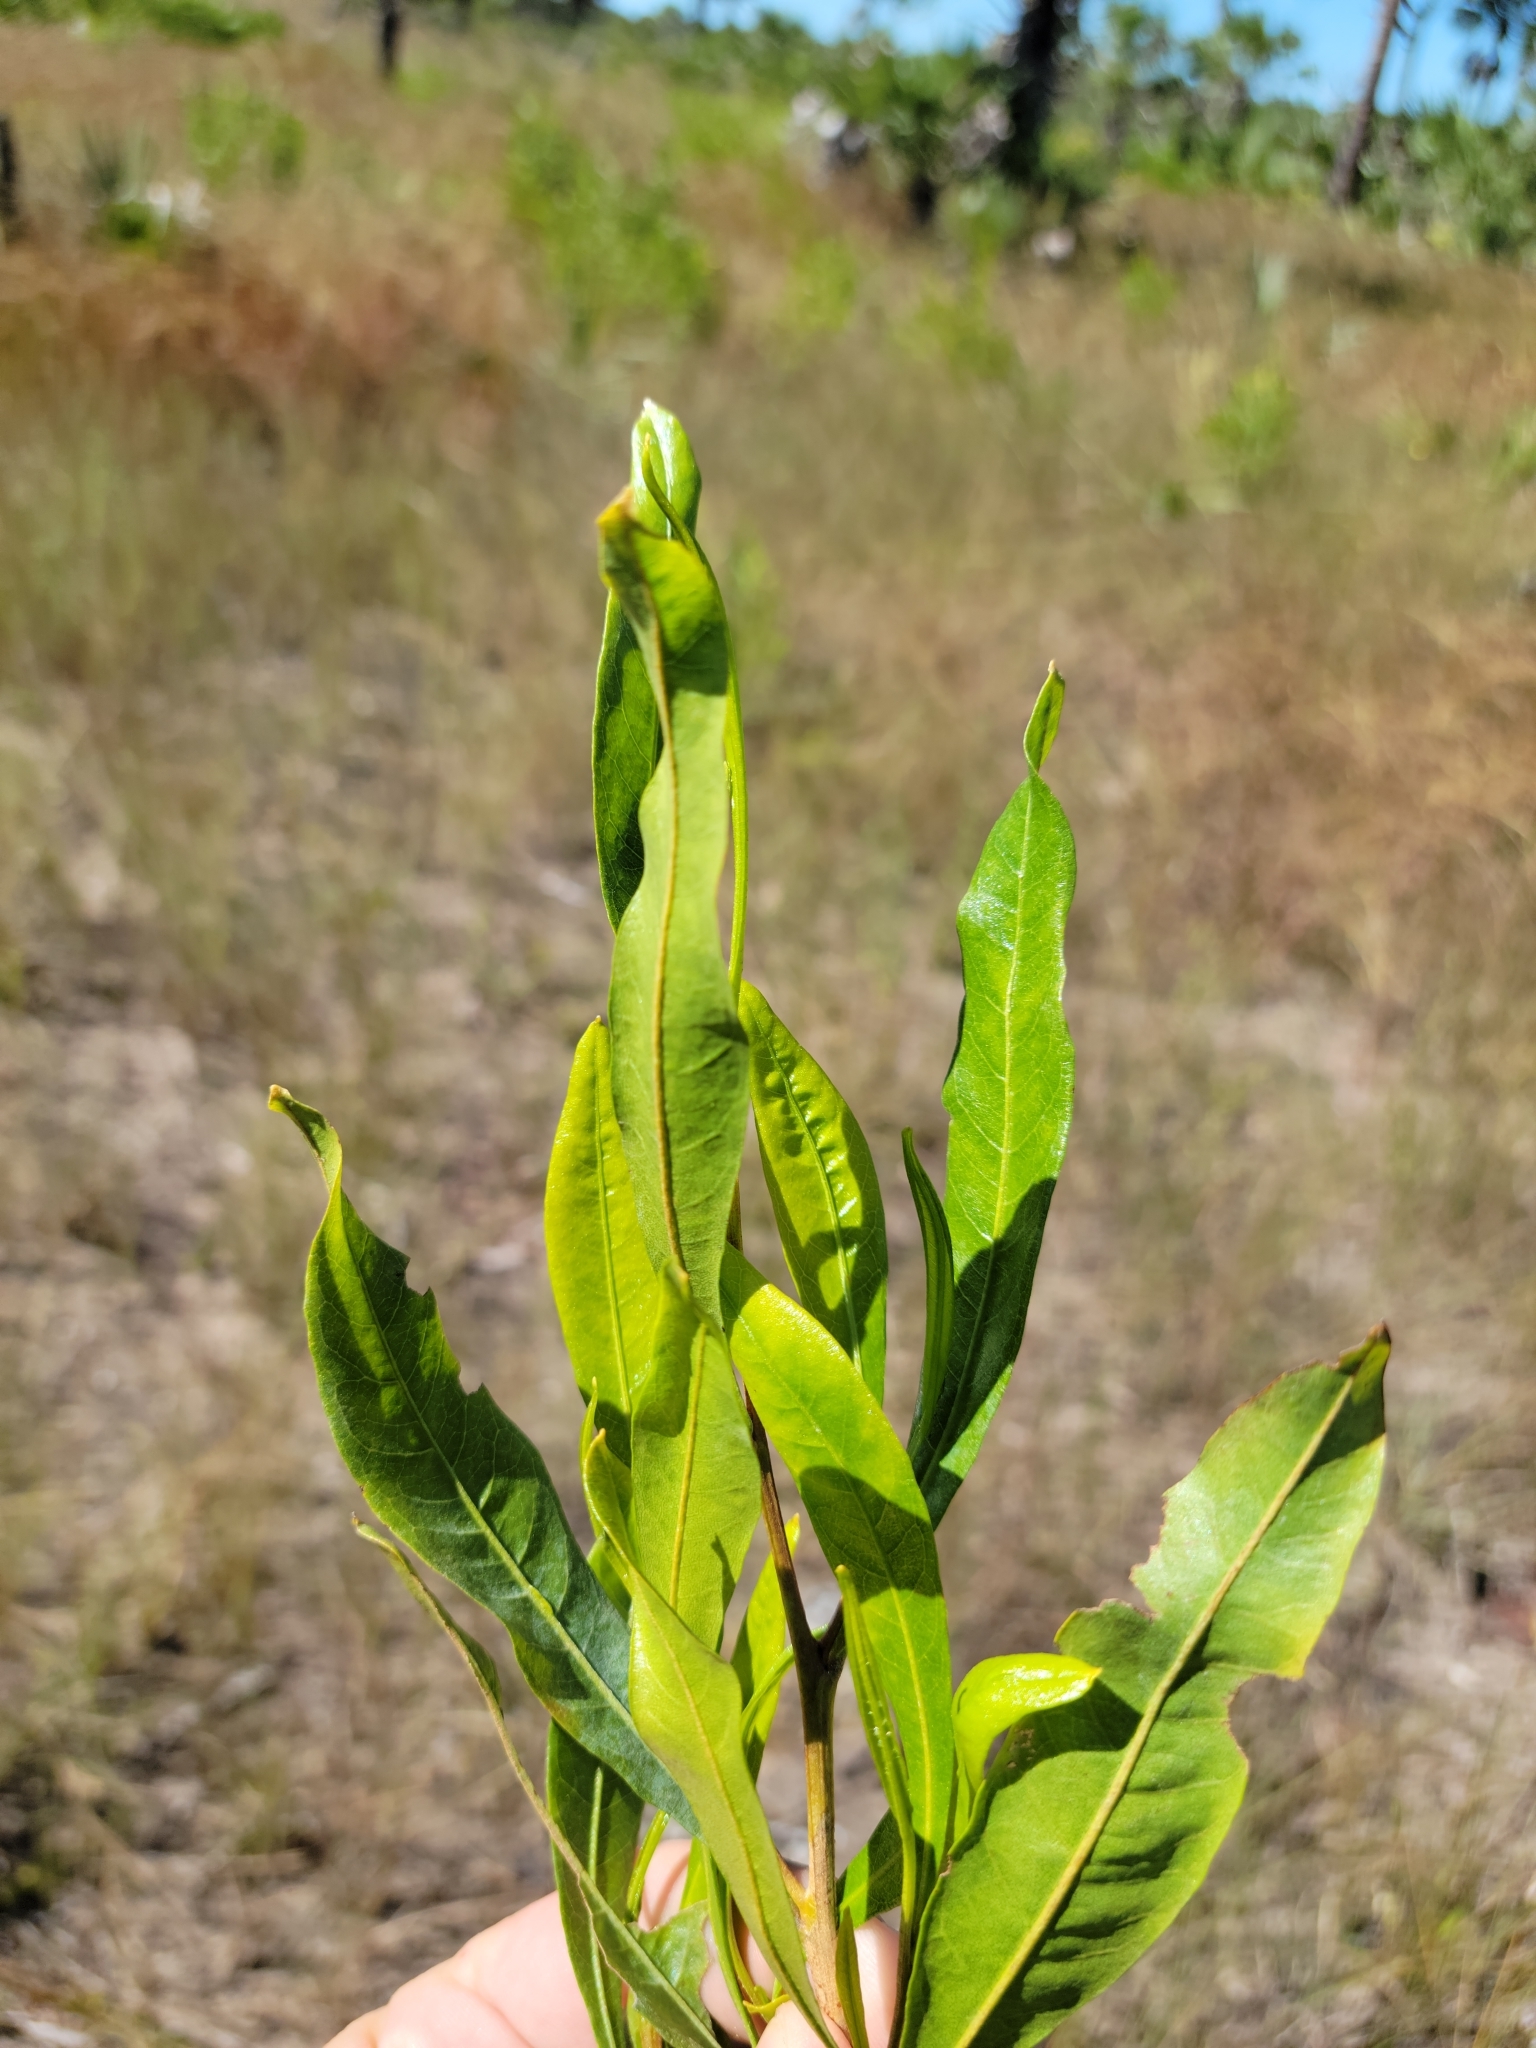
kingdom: Plantae
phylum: Tracheophyta
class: Magnoliopsida
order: Sapindales
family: Sapindaceae
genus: Dodonaea
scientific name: Dodonaea viscosa
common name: Hopbush
